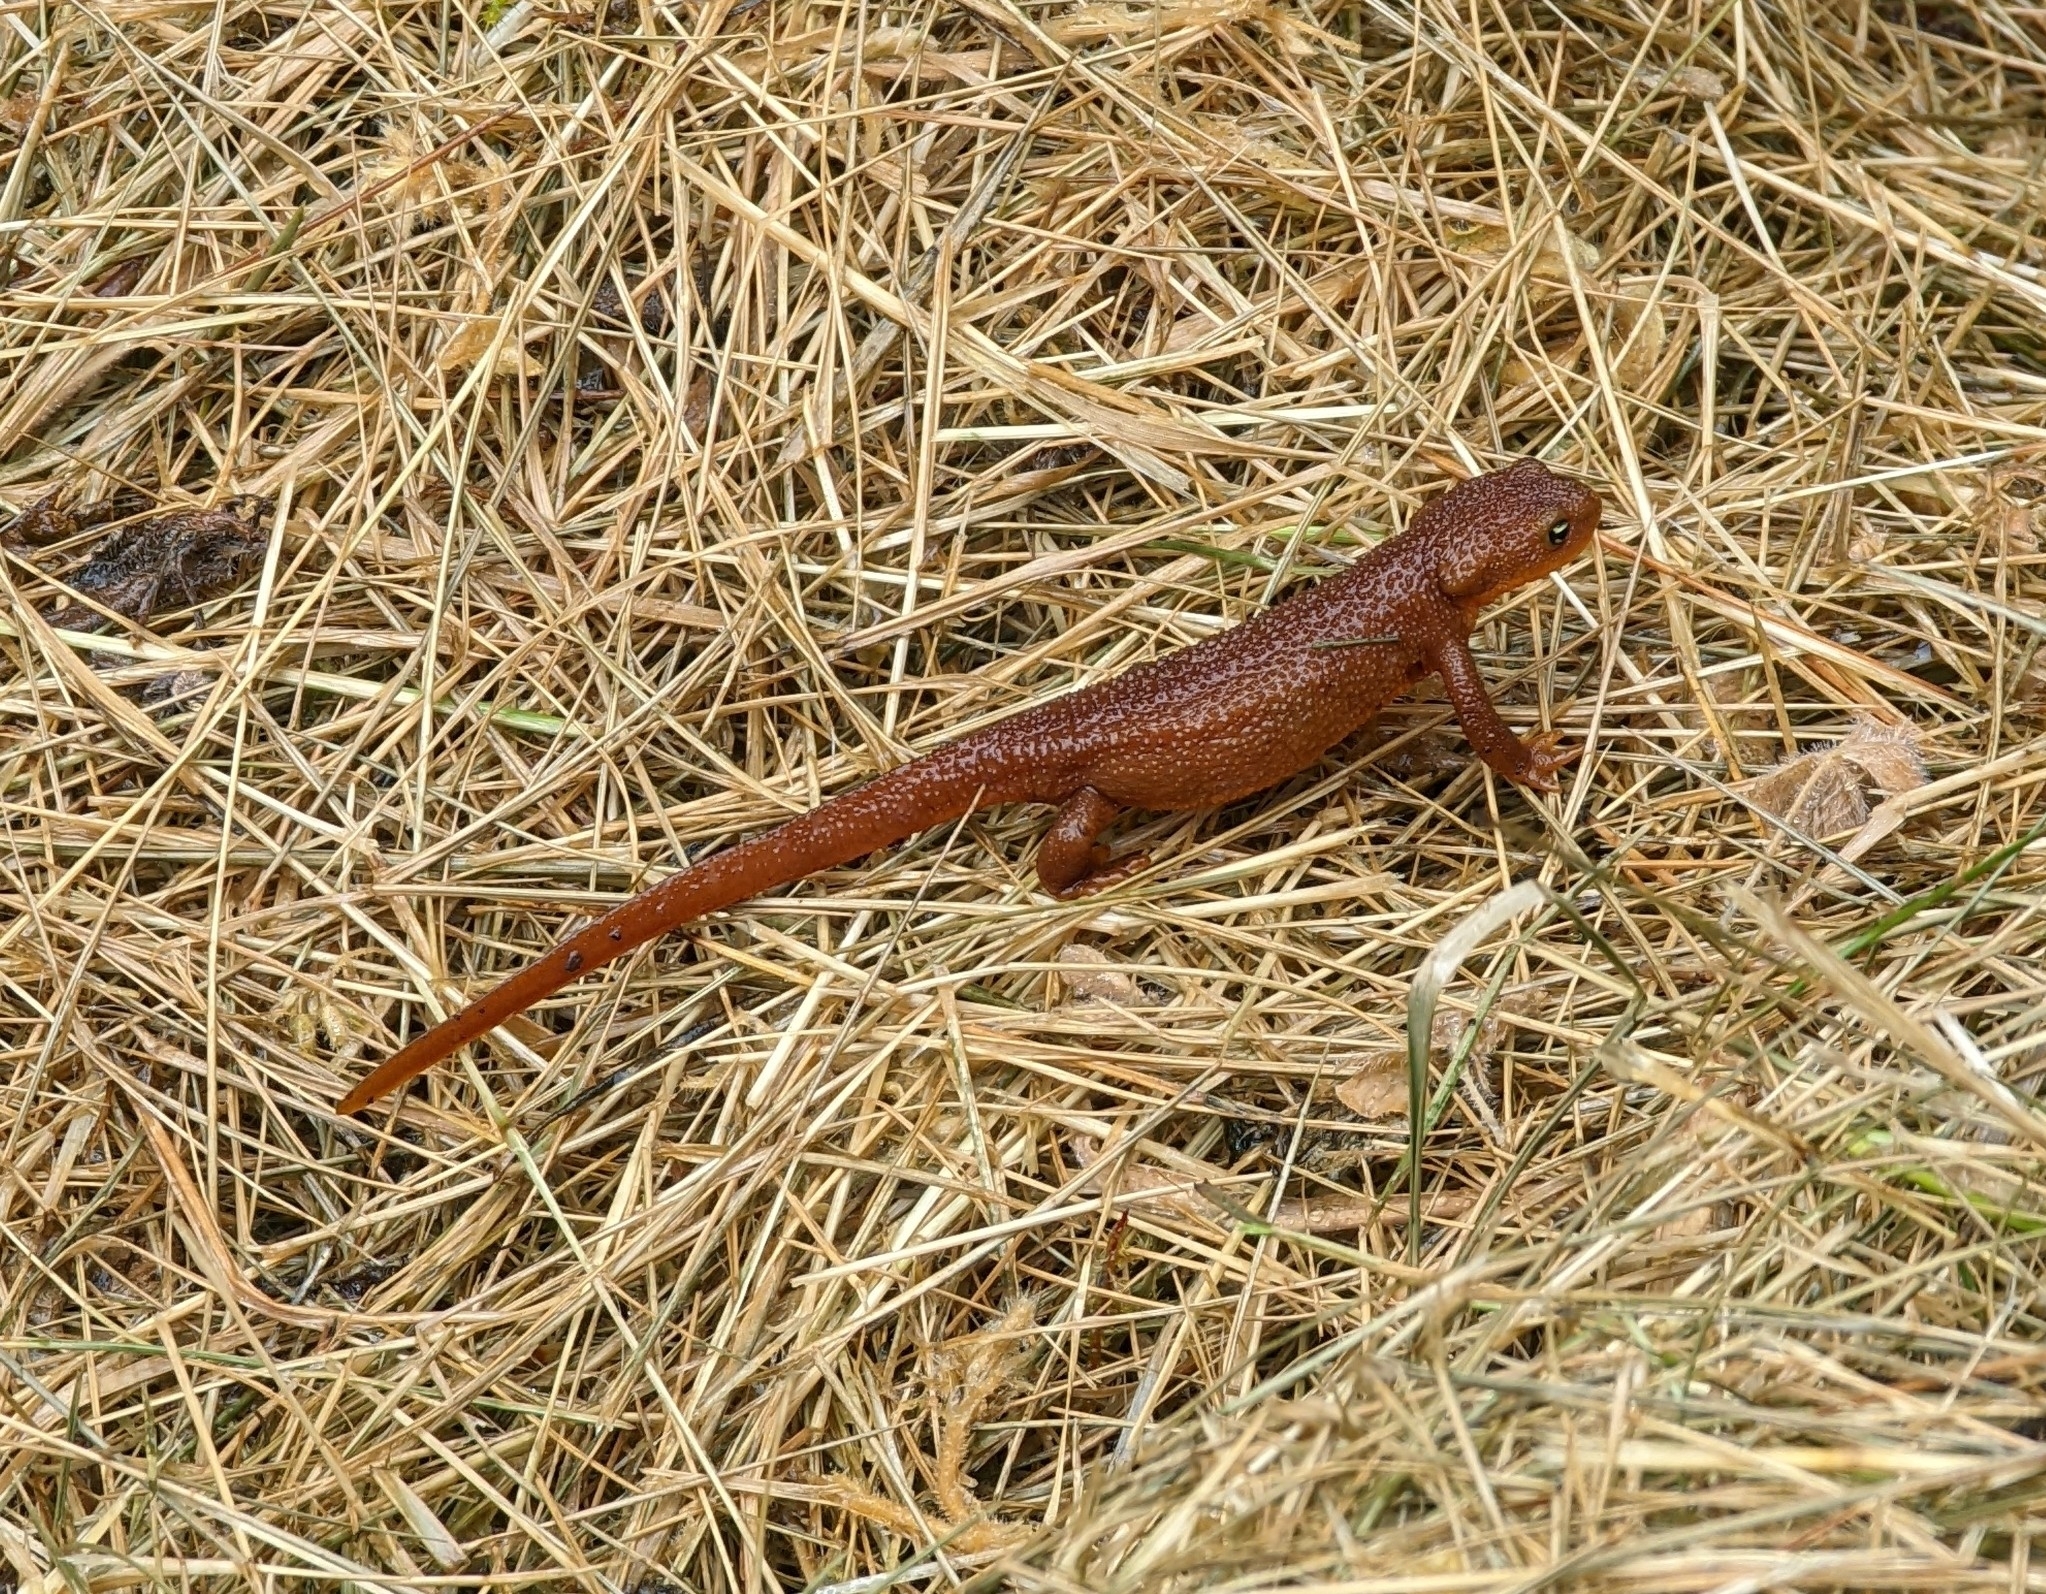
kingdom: Animalia
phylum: Chordata
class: Amphibia
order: Caudata
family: Salamandridae
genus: Taricha
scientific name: Taricha granulosa
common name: Roughskin newt
